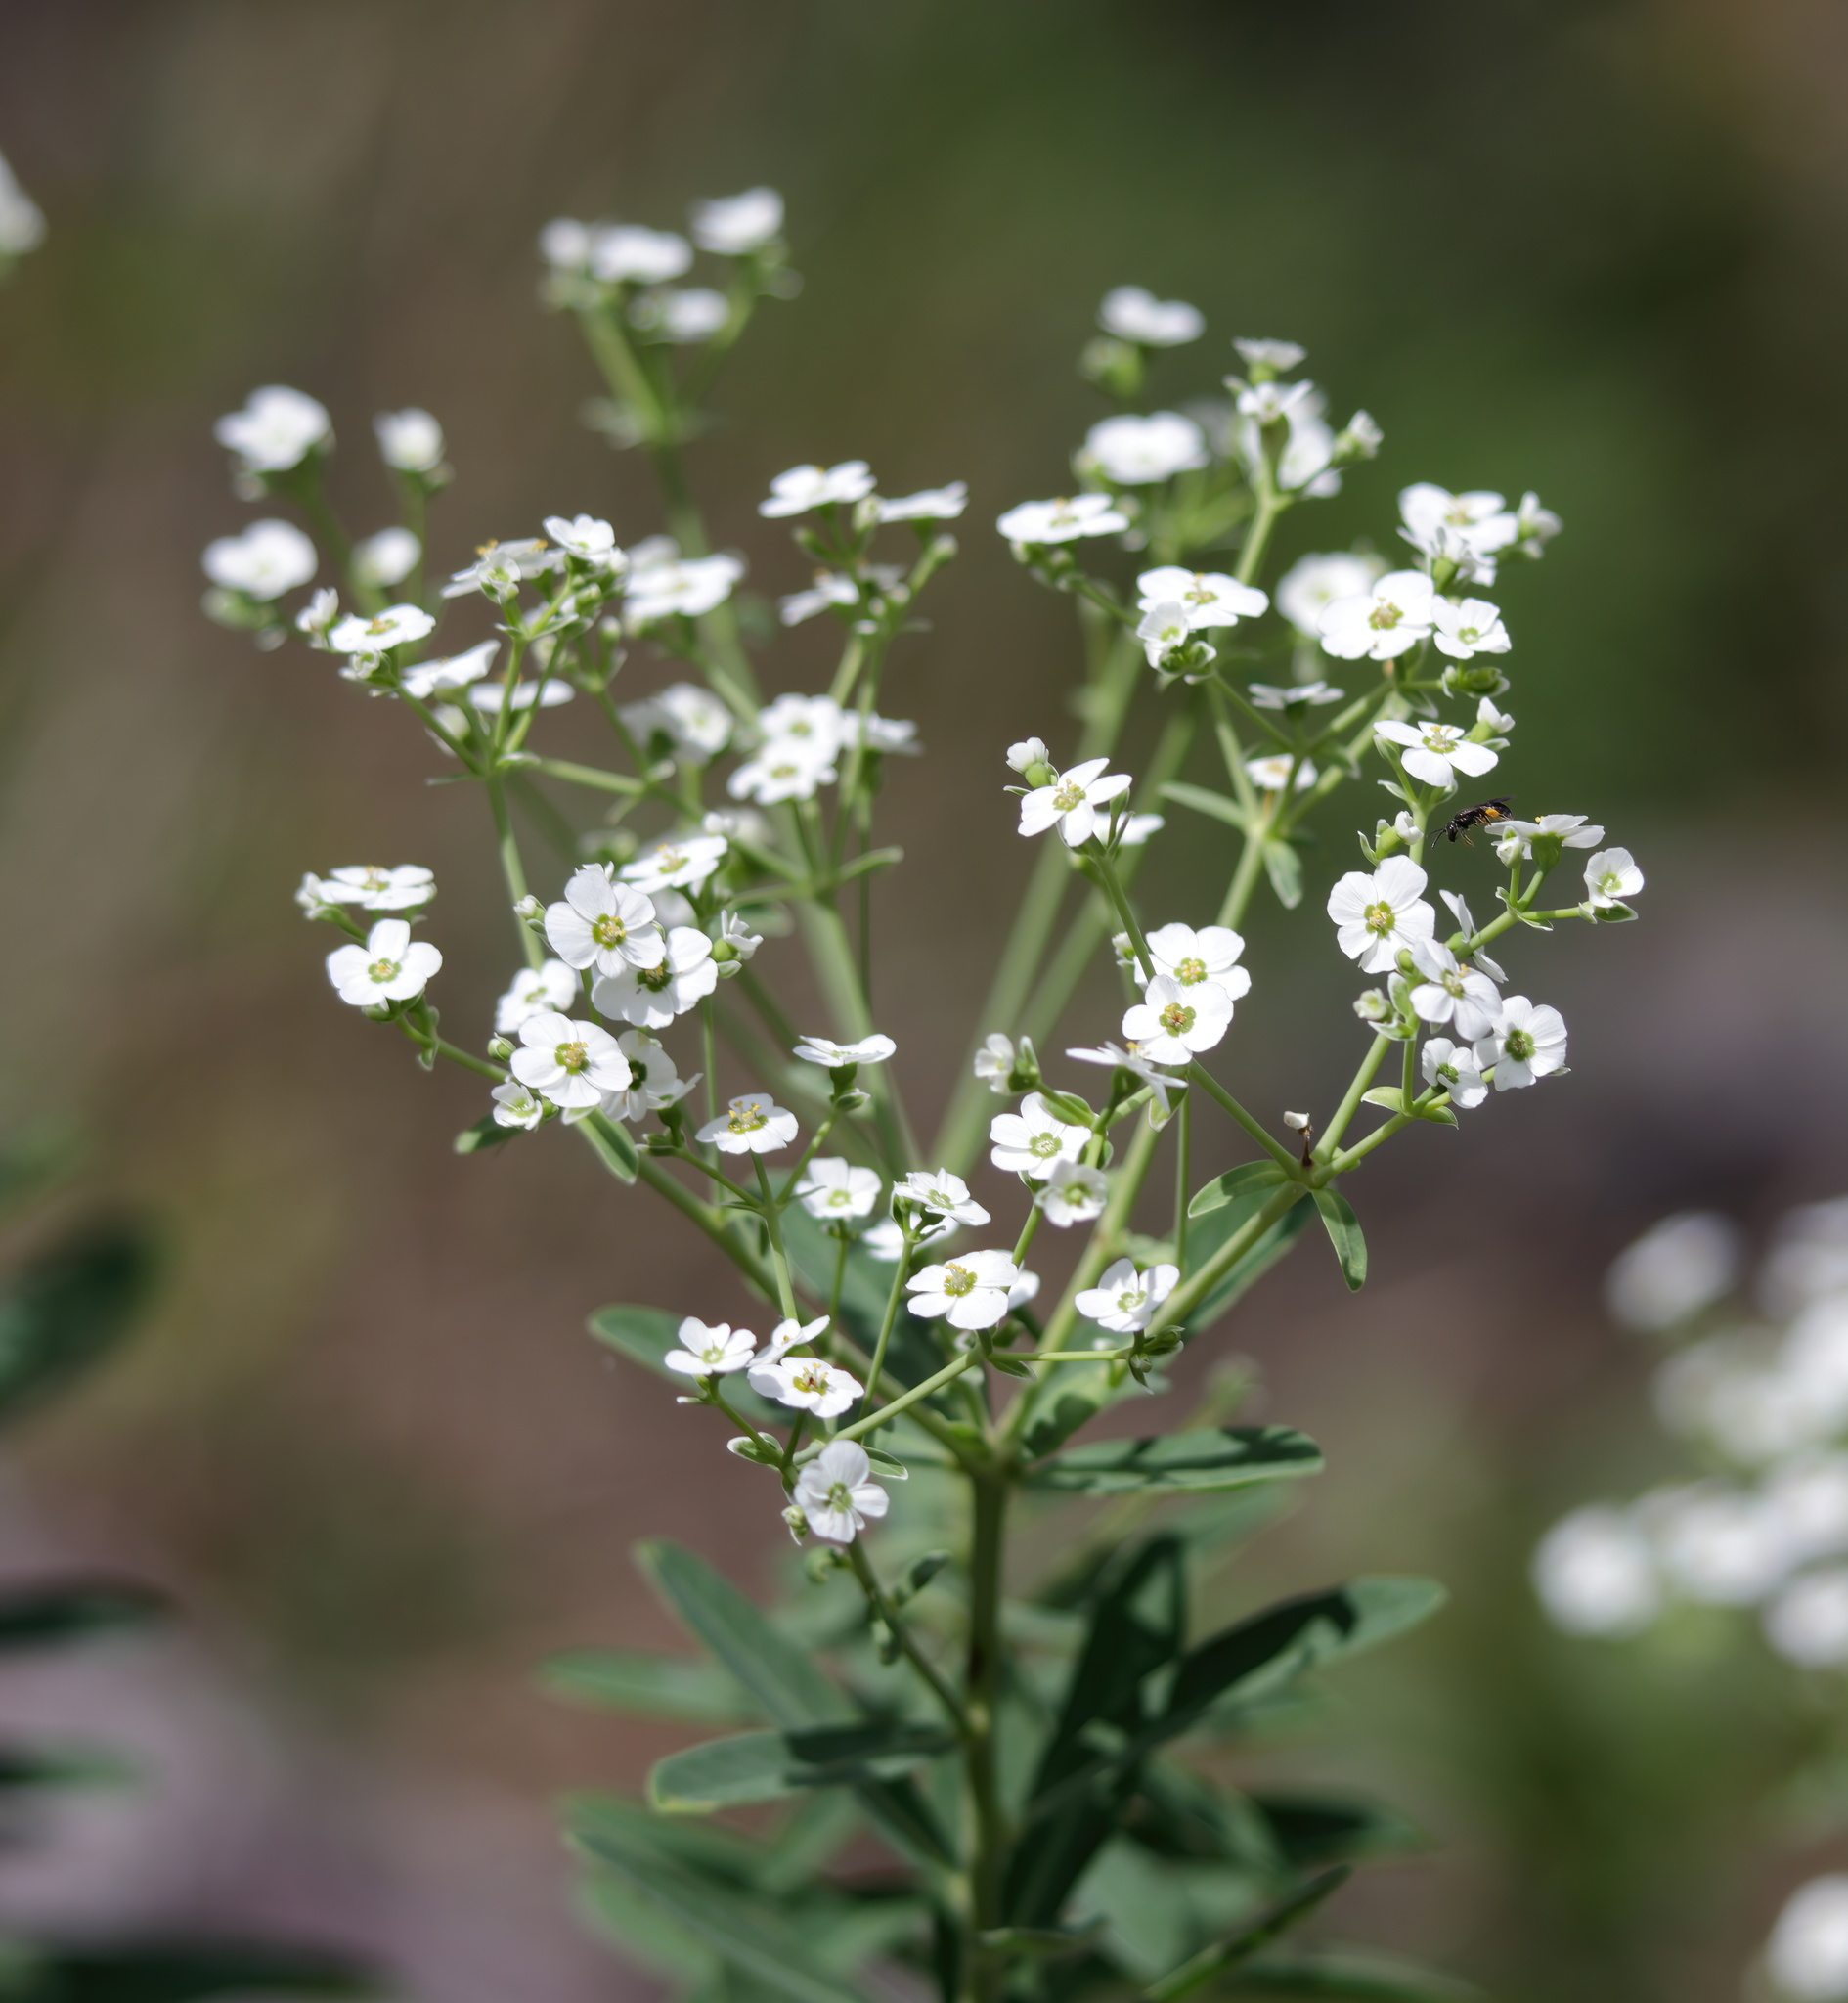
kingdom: Plantae
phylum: Tracheophyta
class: Magnoliopsida
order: Malpighiales
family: Euphorbiaceae
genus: Euphorbia
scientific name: Euphorbia corollata
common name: Flowering spurge
